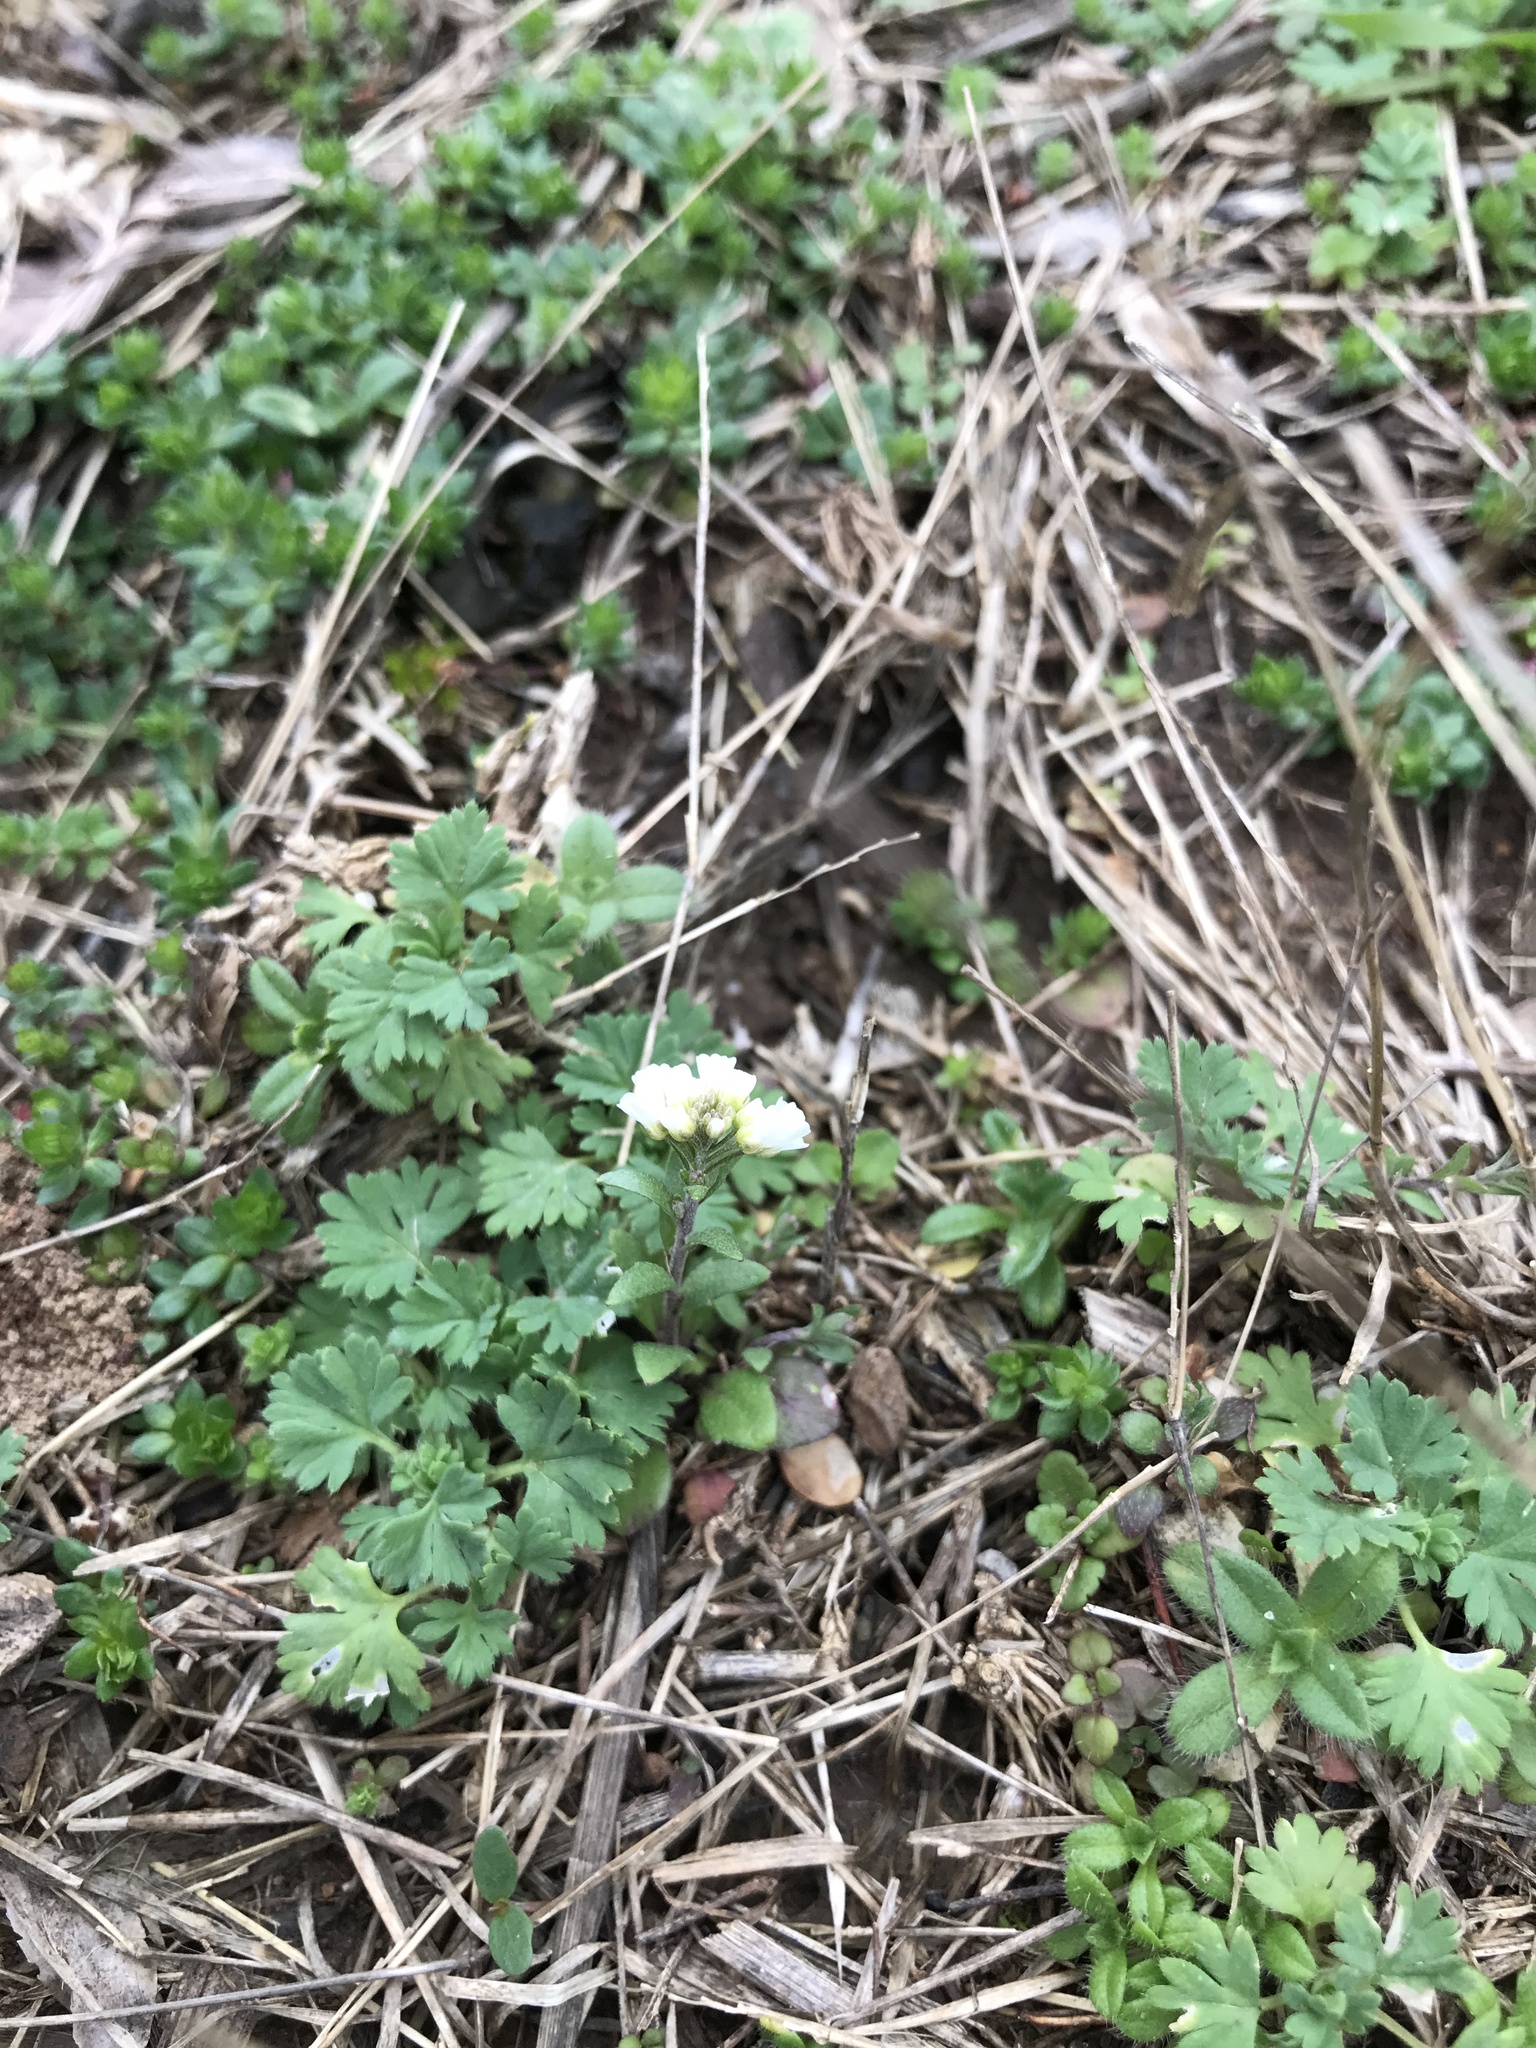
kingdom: Plantae
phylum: Tracheophyta
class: Magnoliopsida
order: Brassicales
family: Brassicaceae
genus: Abdra
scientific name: Abdra brachycarpa
